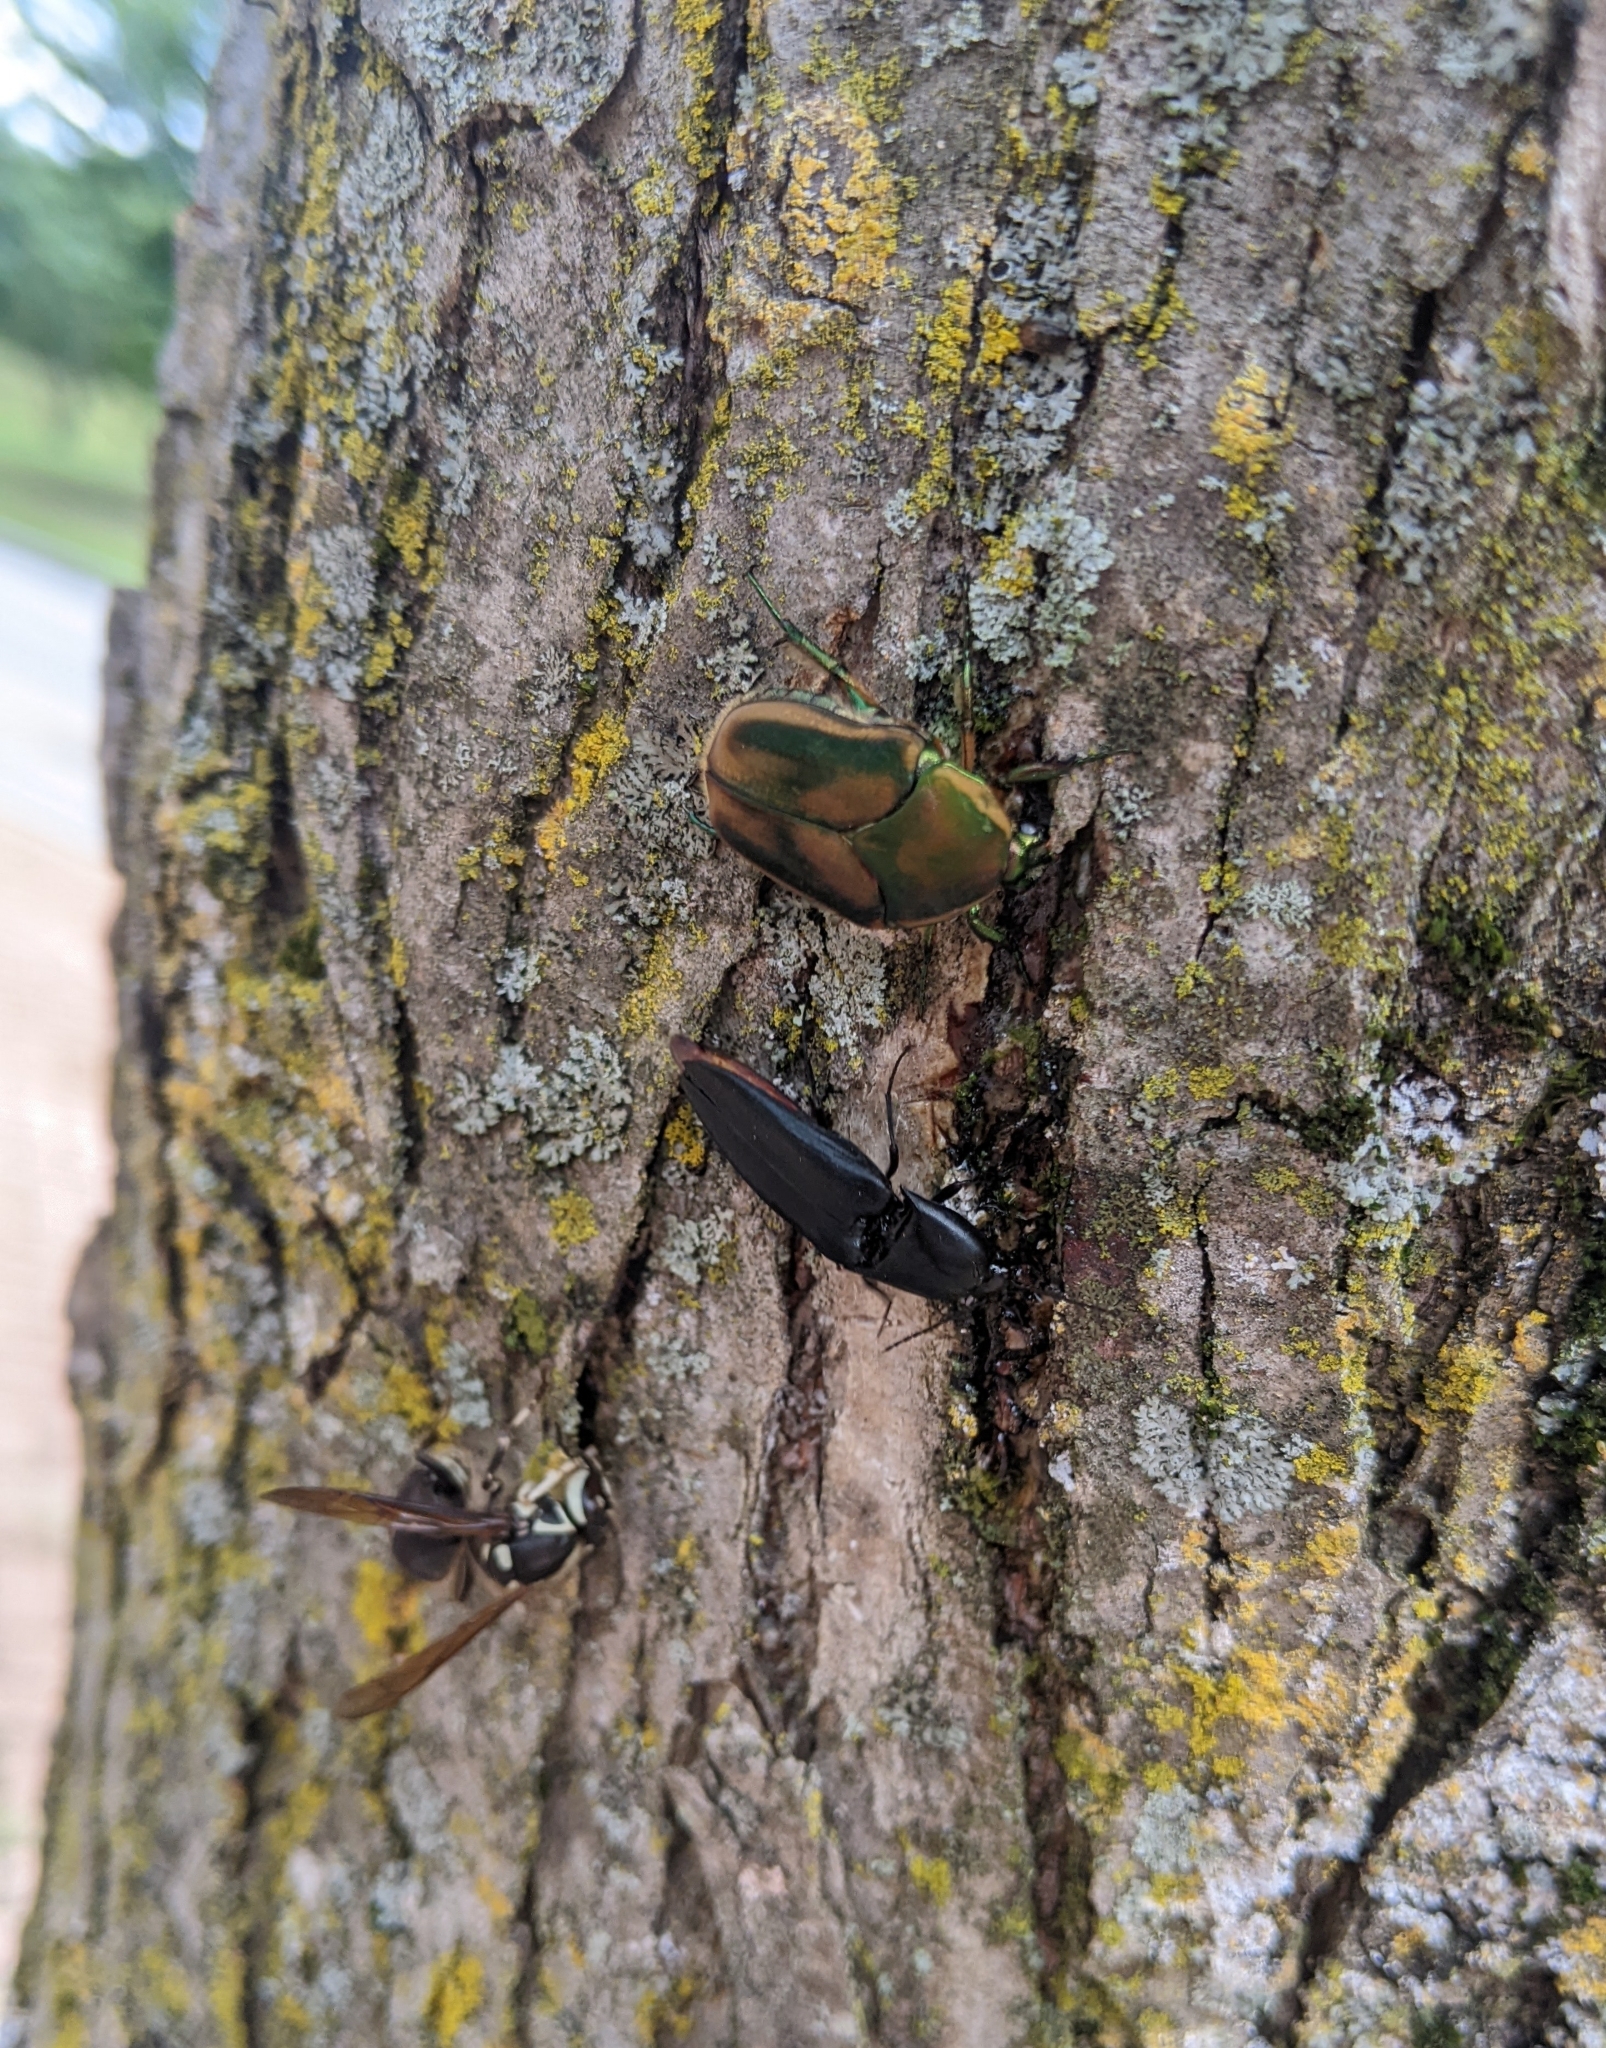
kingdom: Animalia
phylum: Arthropoda
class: Insecta
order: Hymenoptera
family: Vespidae
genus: Dolichovespula
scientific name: Dolichovespula maculata
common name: Bald-faced hornet
